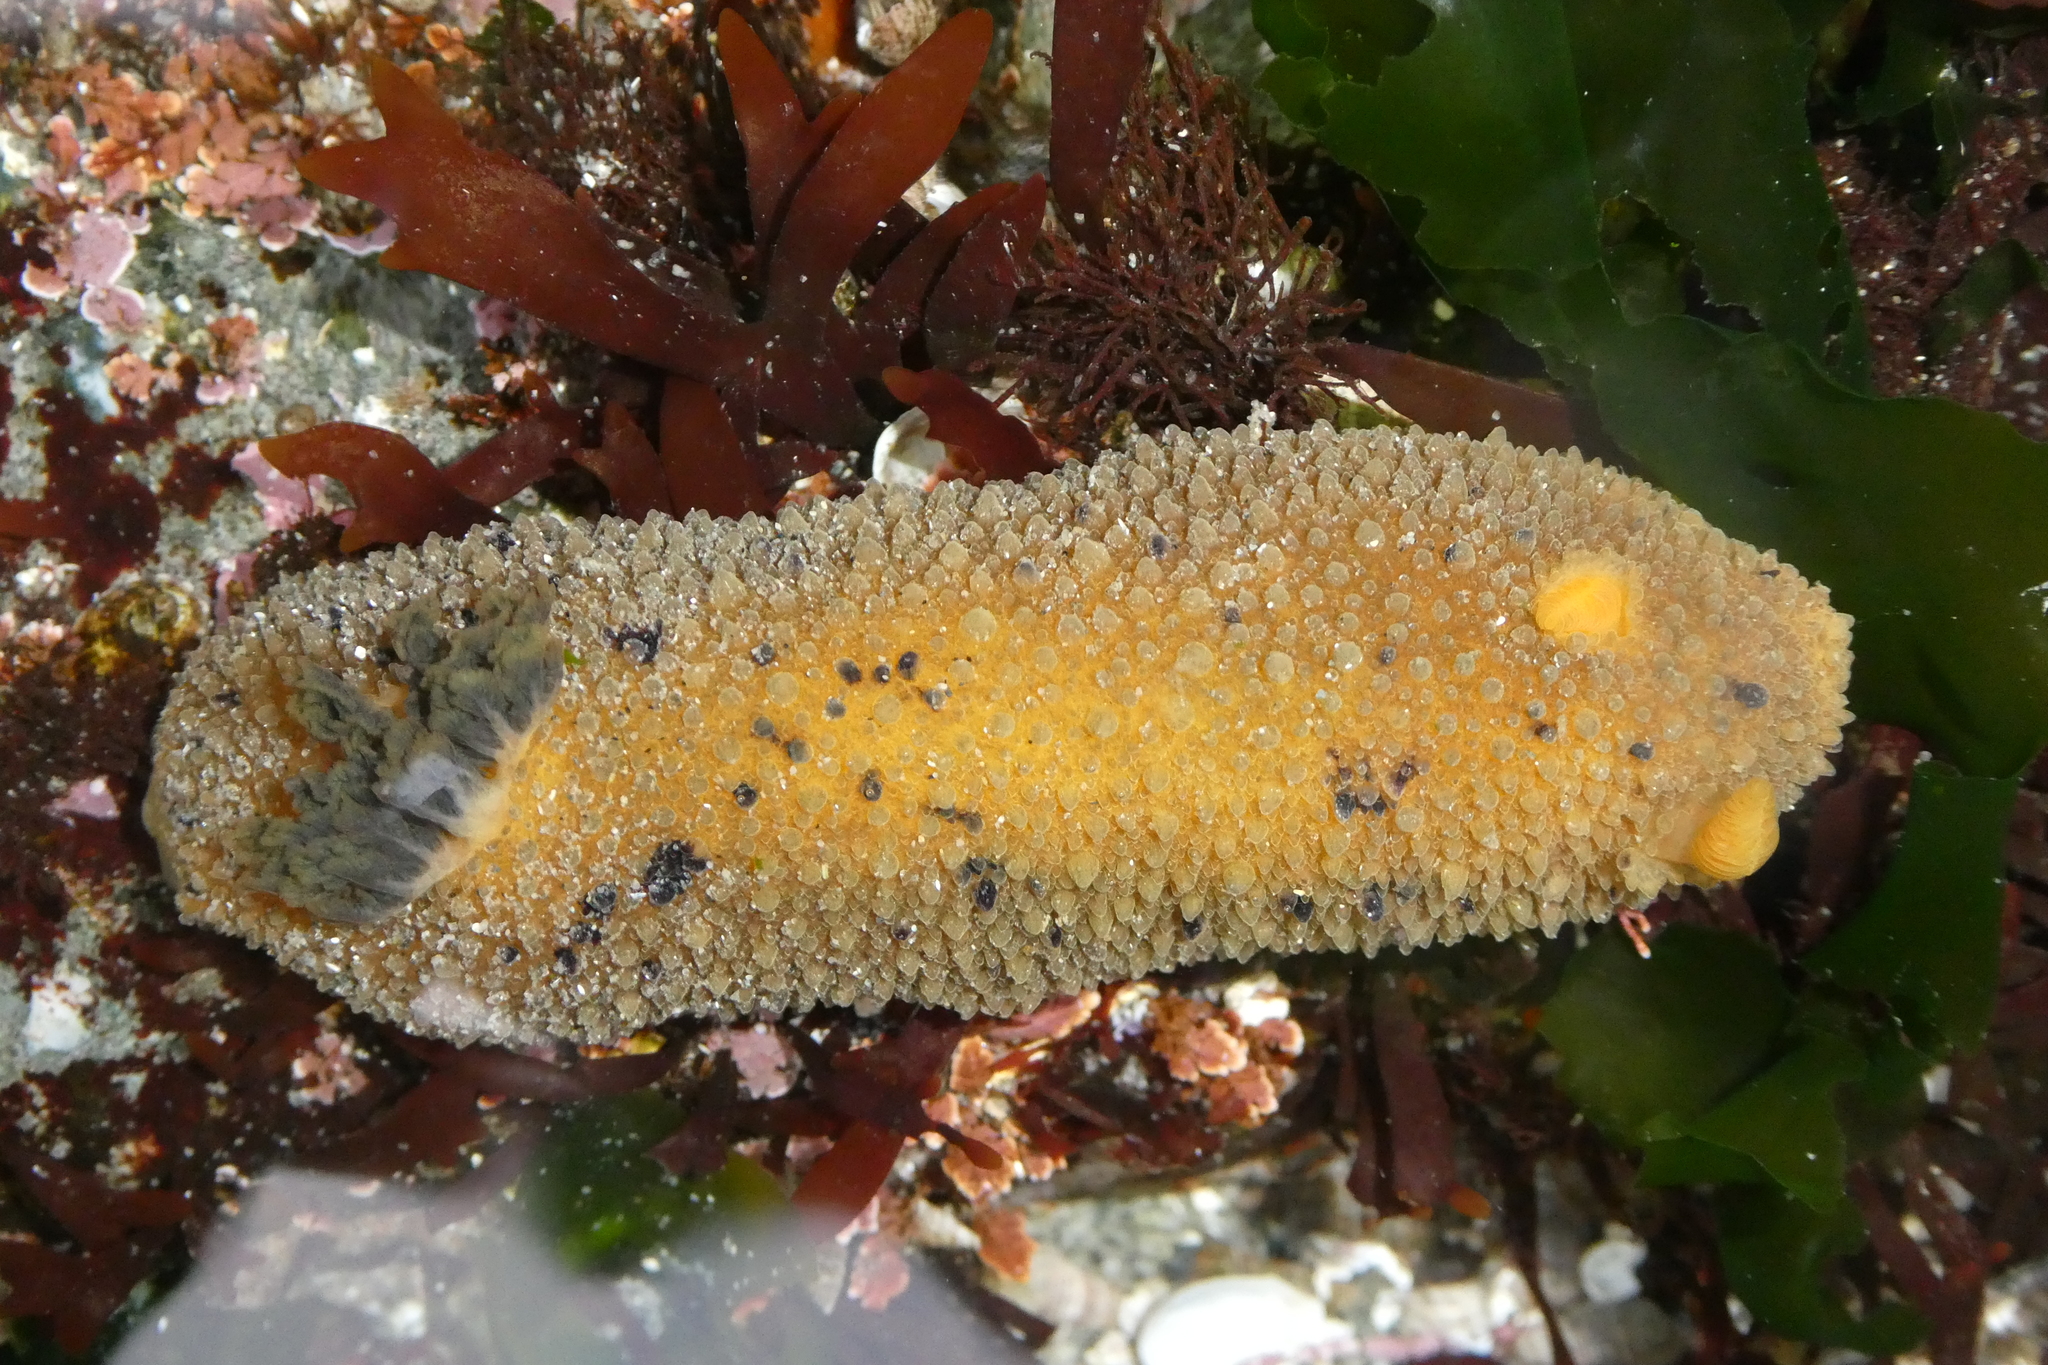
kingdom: Animalia
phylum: Mollusca
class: Gastropoda
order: Nudibranchia
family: Dorididae
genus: Doris
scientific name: Doris montereyensis
